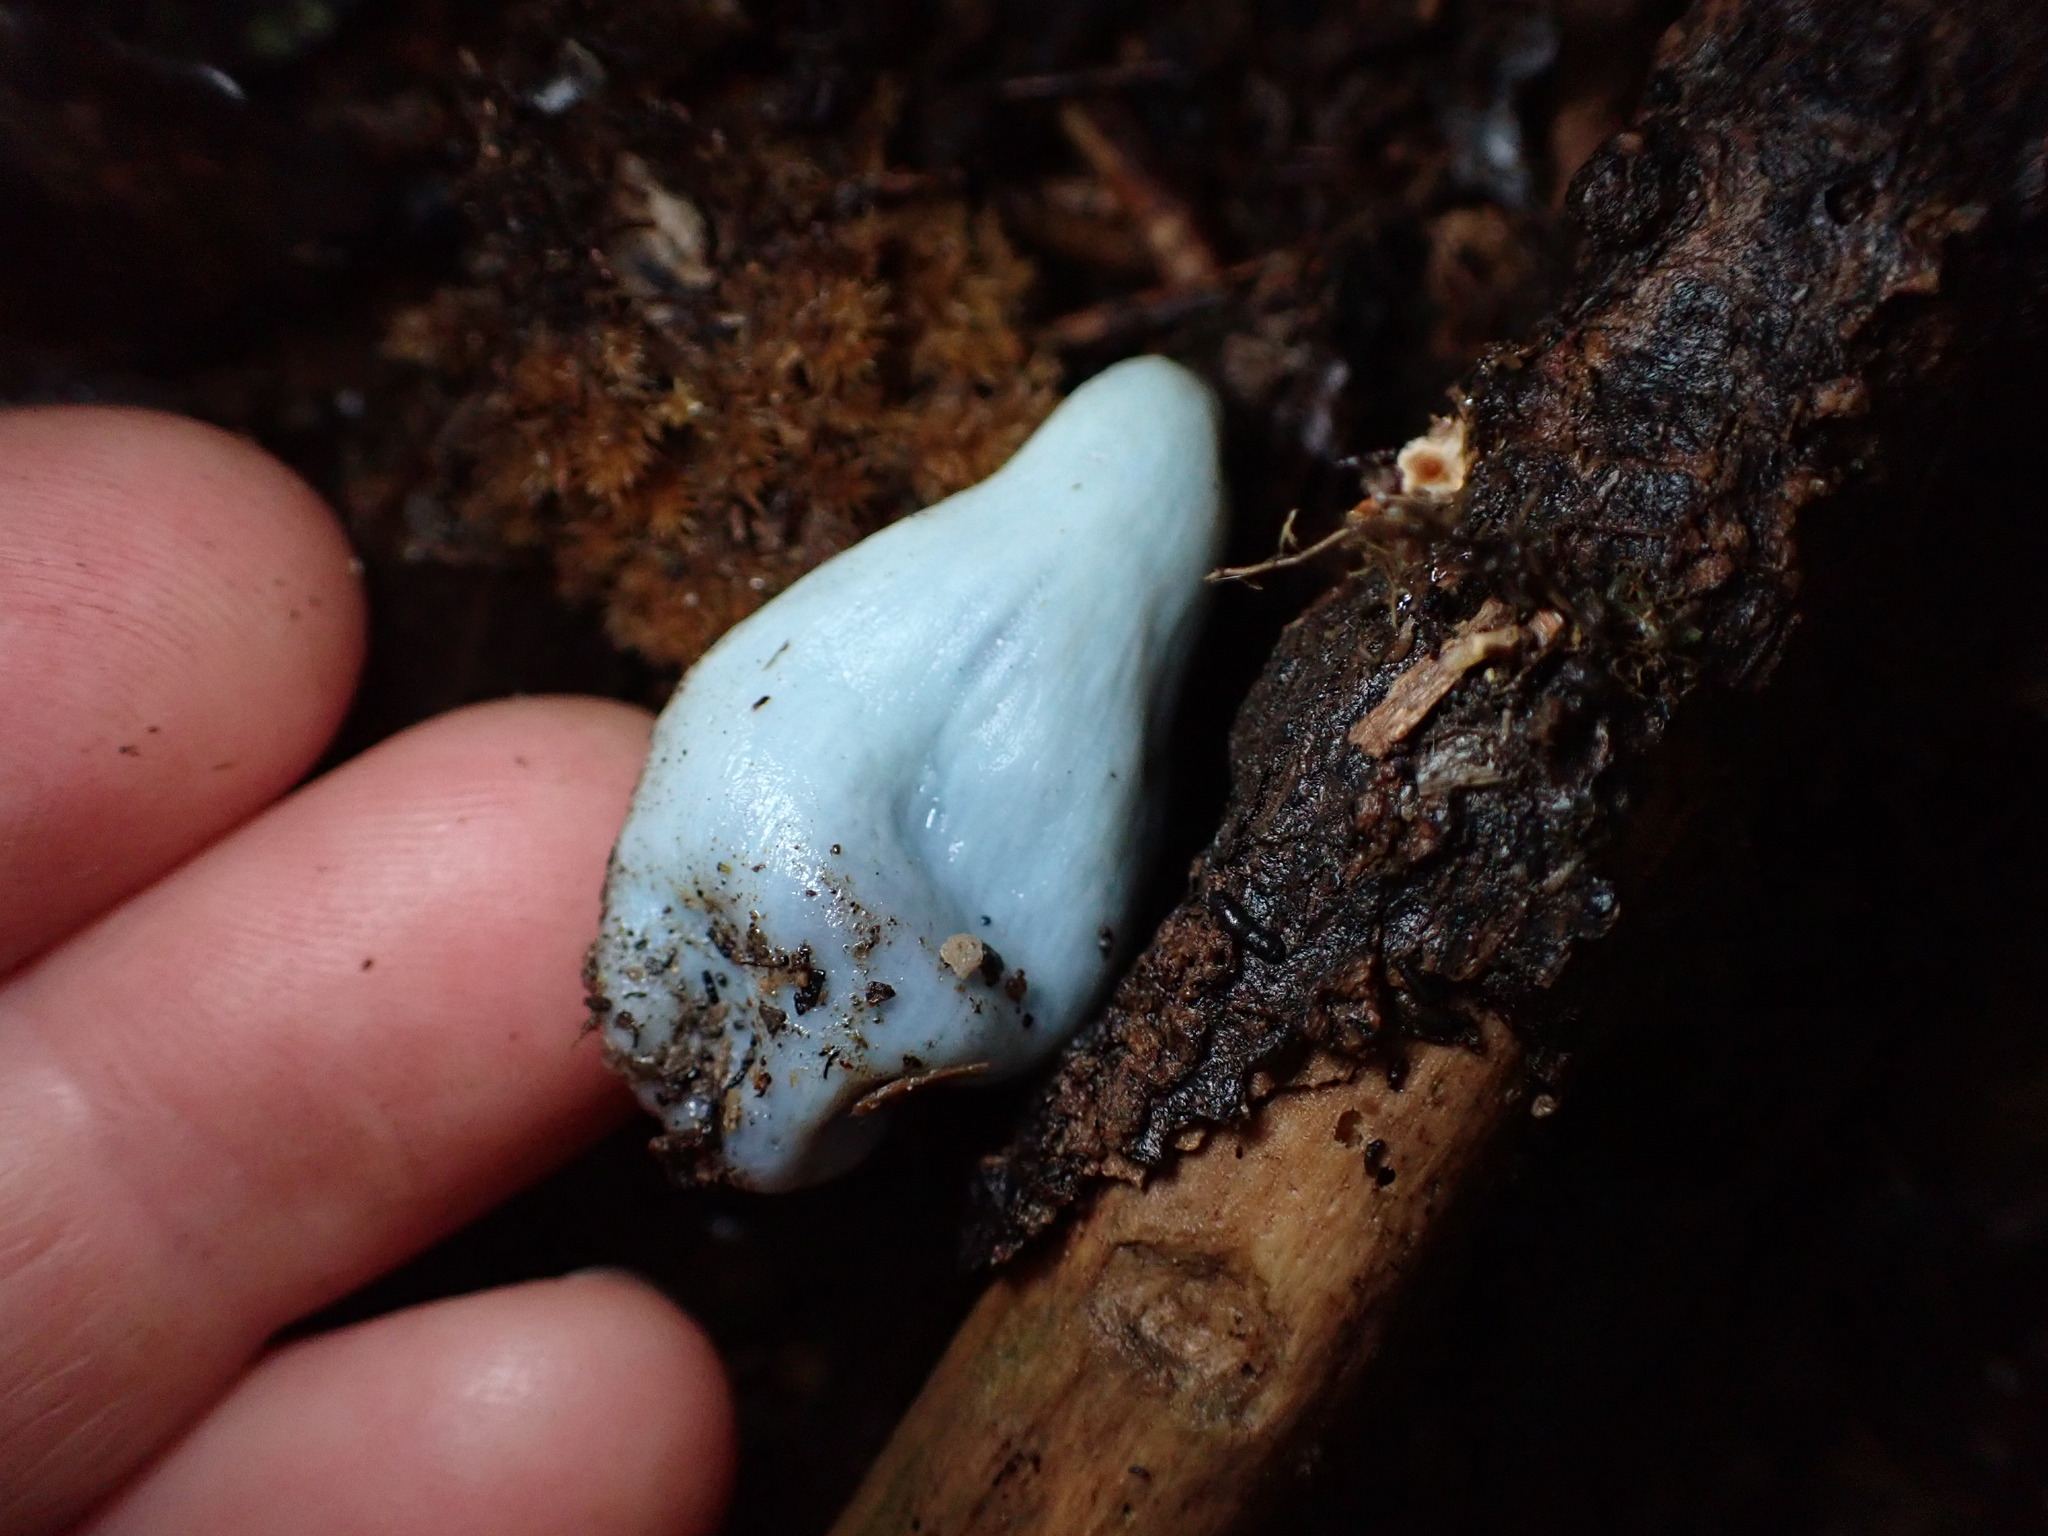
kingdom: Fungi
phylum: Basidiomycota
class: Agaricomycetes
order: Agaricales
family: Agaricaceae
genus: Clavogaster
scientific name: Clavogaster virescens
